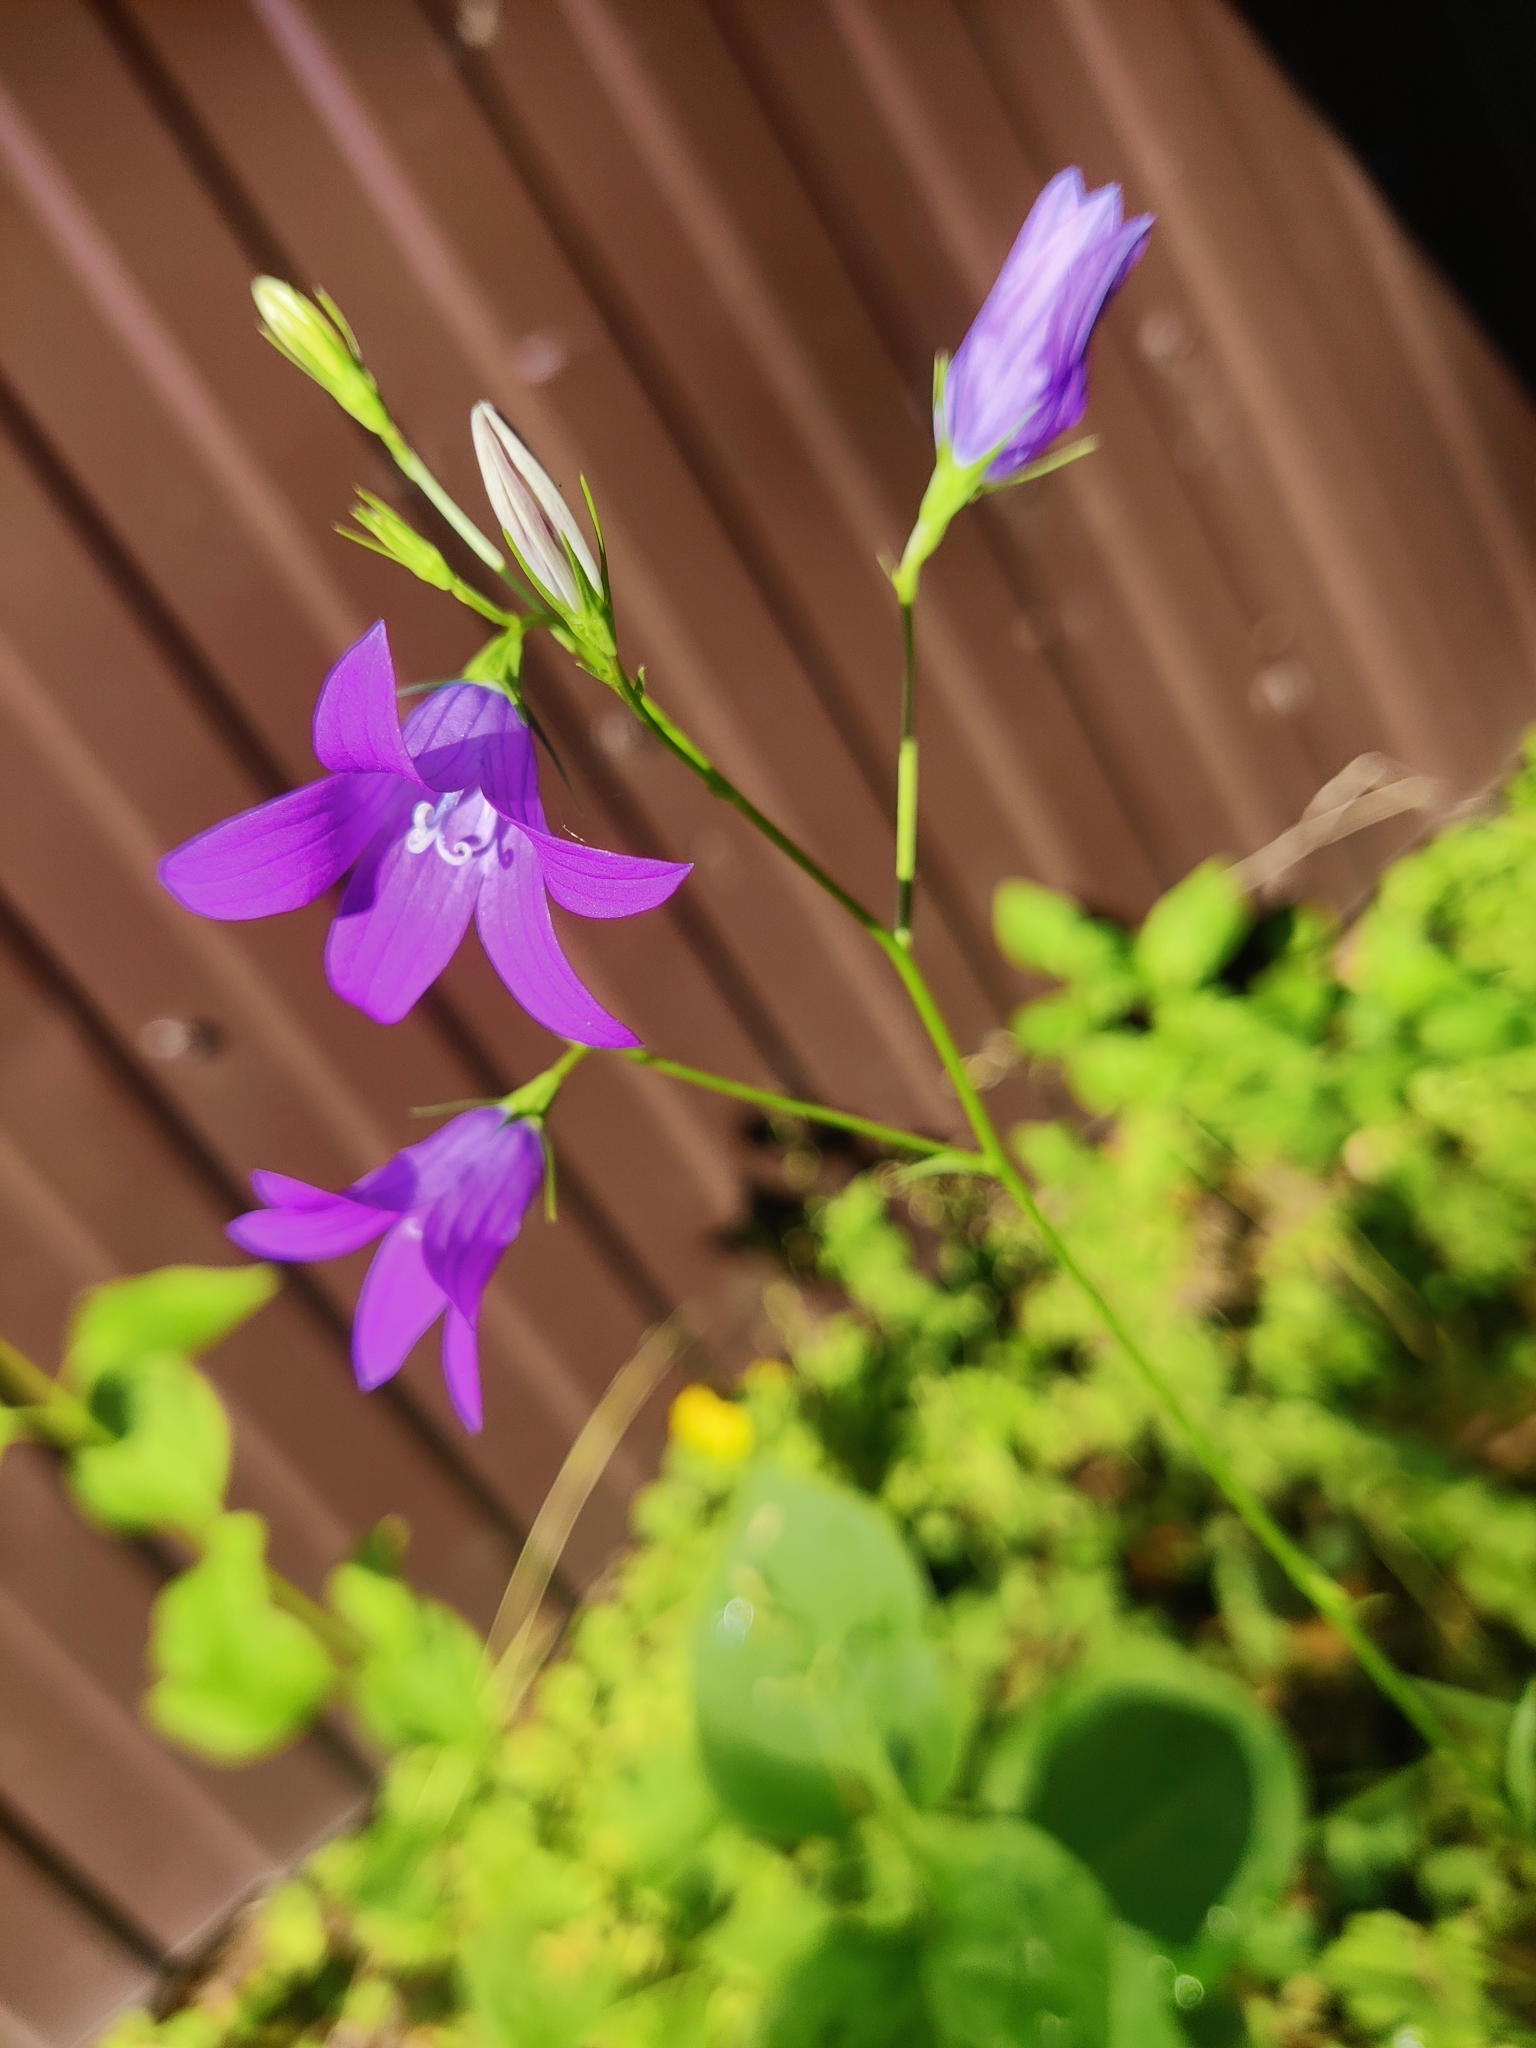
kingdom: Plantae
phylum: Tracheophyta
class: Magnoliopsida
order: Asterales
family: Campanulaceae
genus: Campanula
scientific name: Campanula patula
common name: Spreading bellflower
